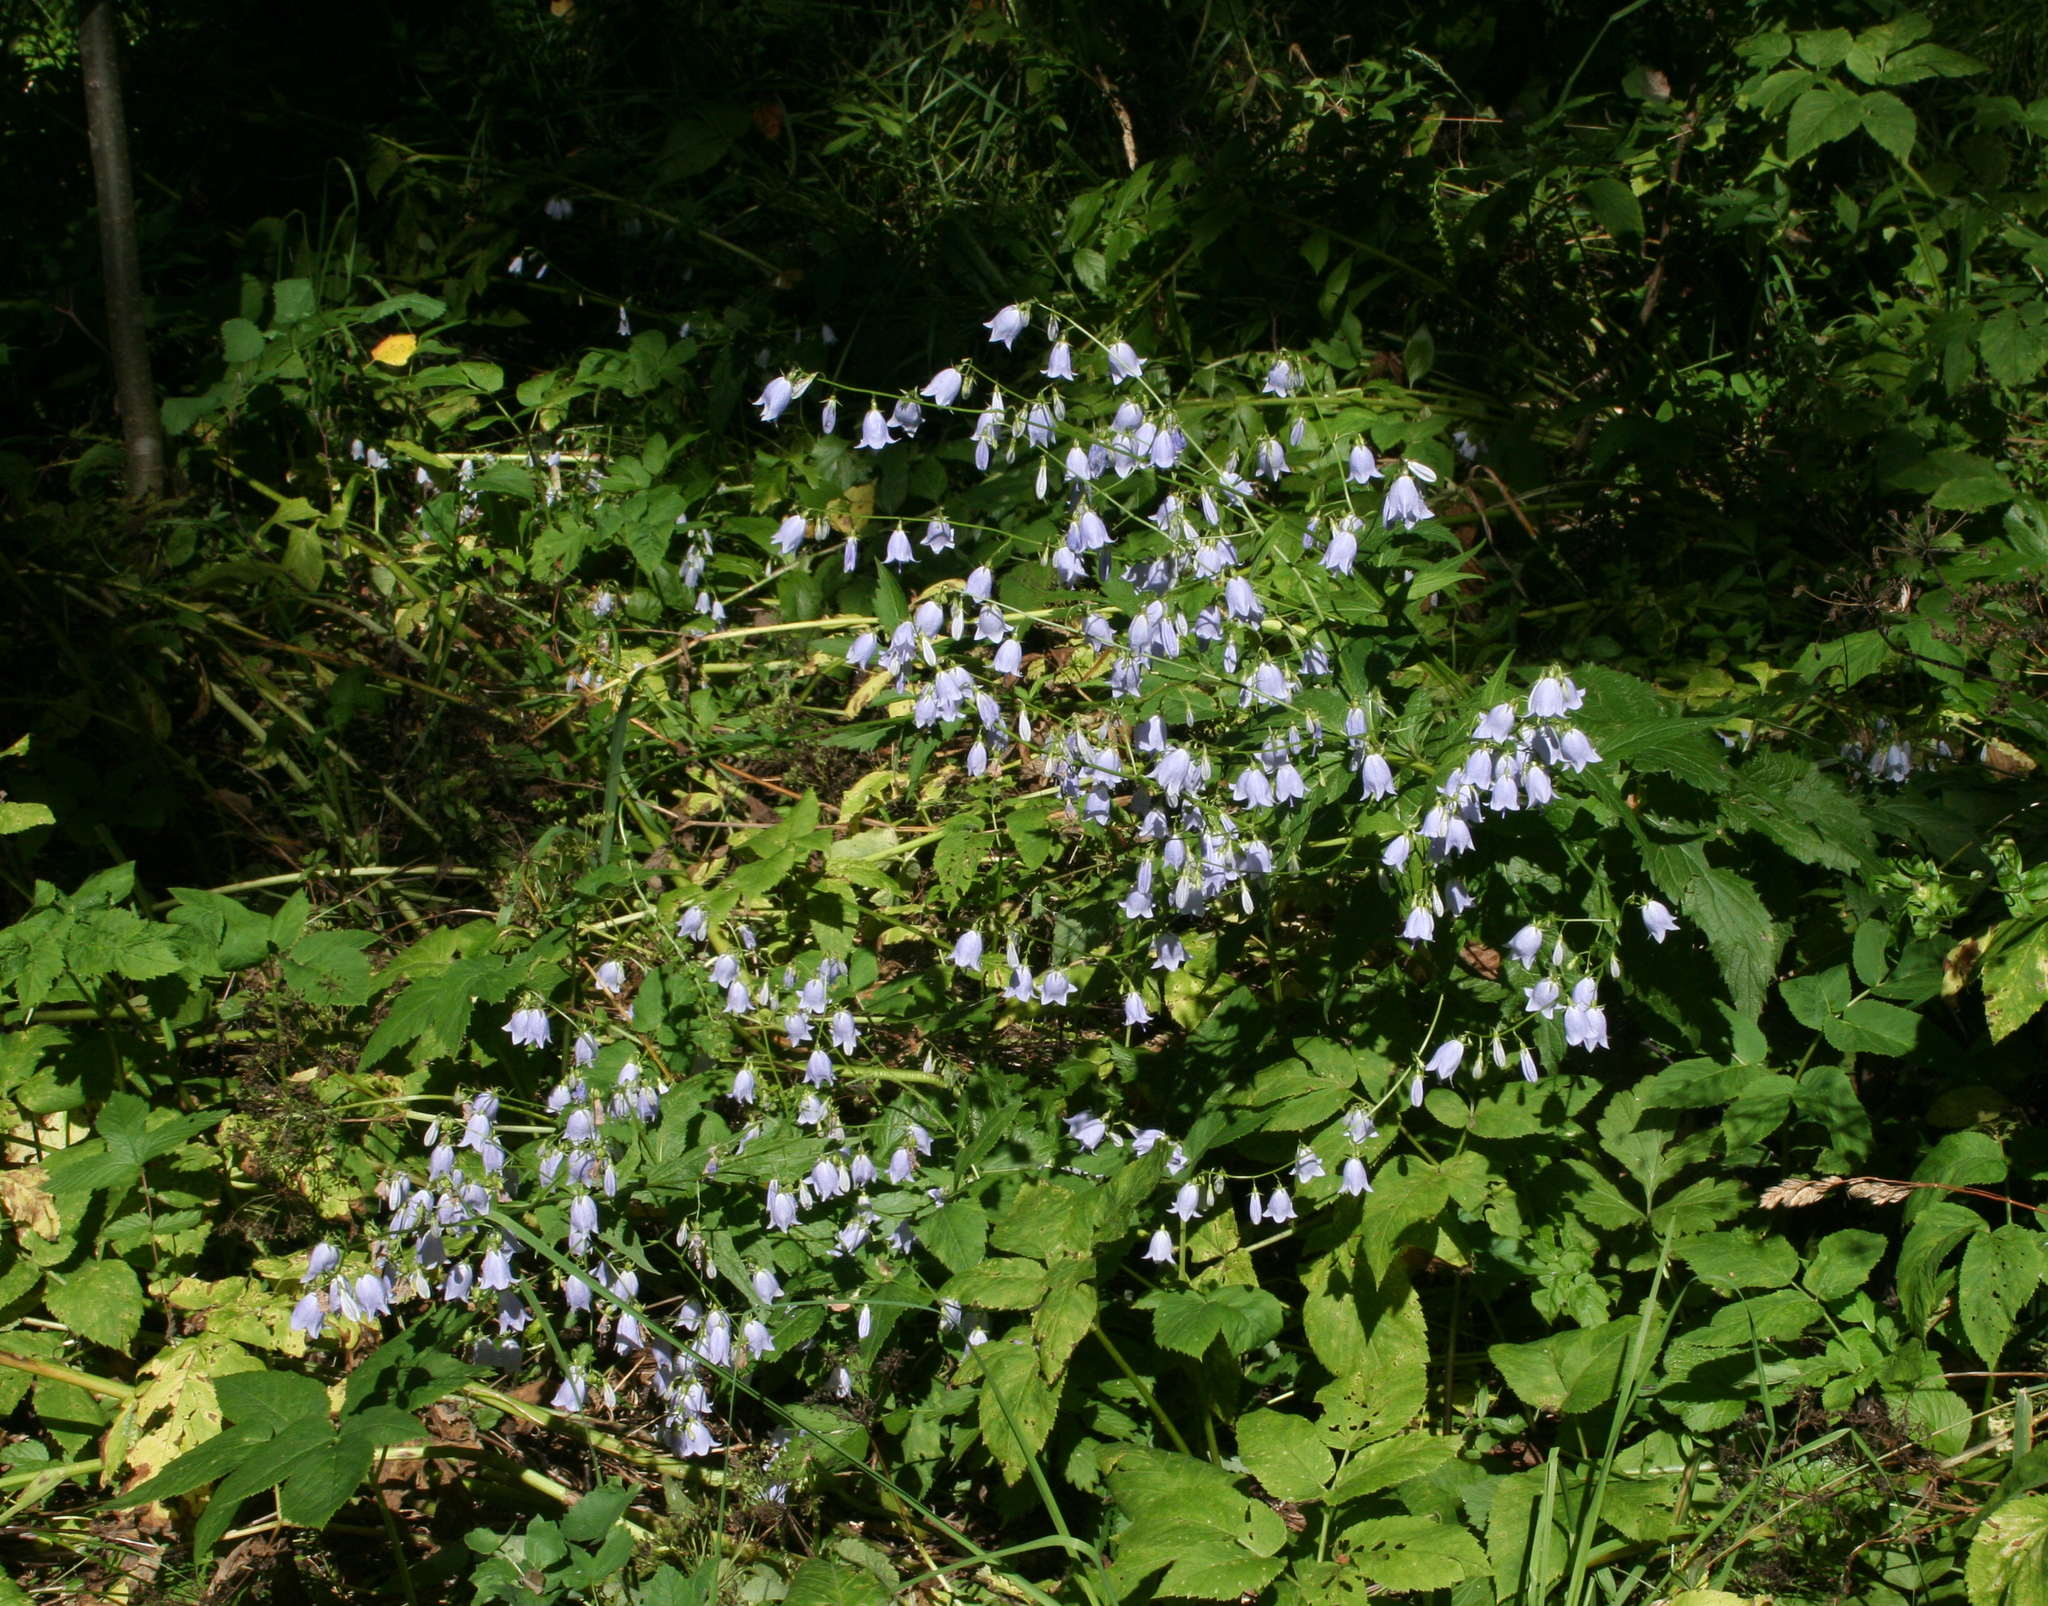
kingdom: Plantae
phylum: Tracheophyta
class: Magnoliopsida
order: Asterales
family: Campanulaceae
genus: Adenophora
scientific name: Adenophora liliifolia
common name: Lilyleaf ladybells
